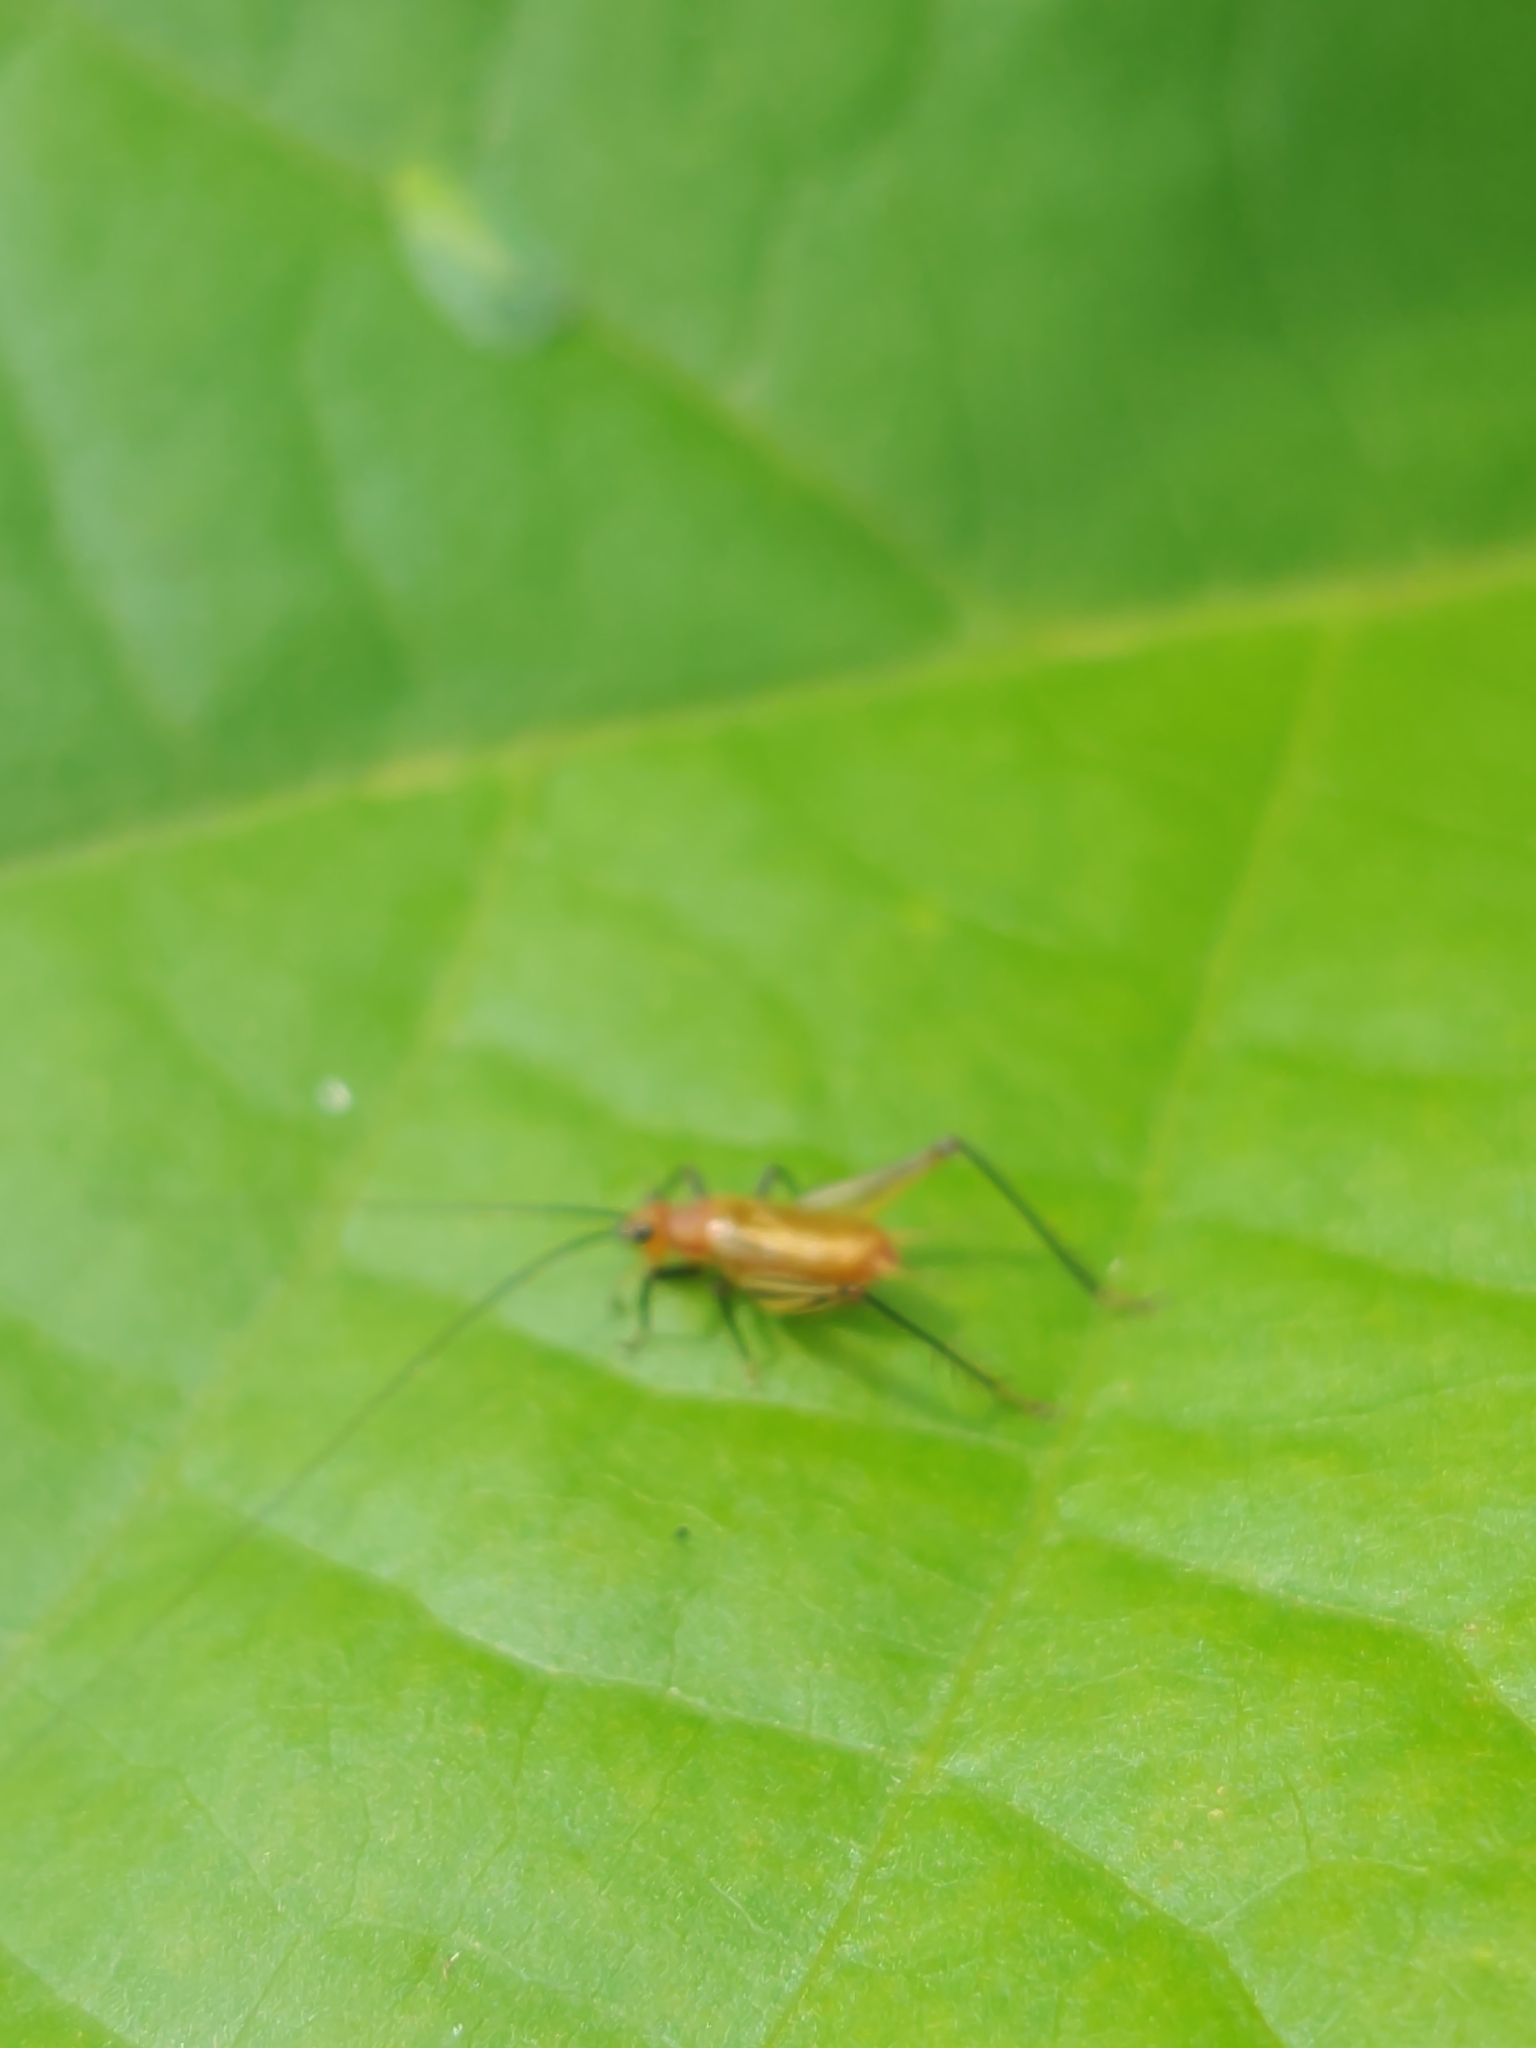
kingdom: Animalia
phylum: Arthropoda
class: Insecta
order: Orthoptera
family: Trigonidiidae
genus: Nanixipha
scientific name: Nanixipha nahoa
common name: Truncated true katydid
